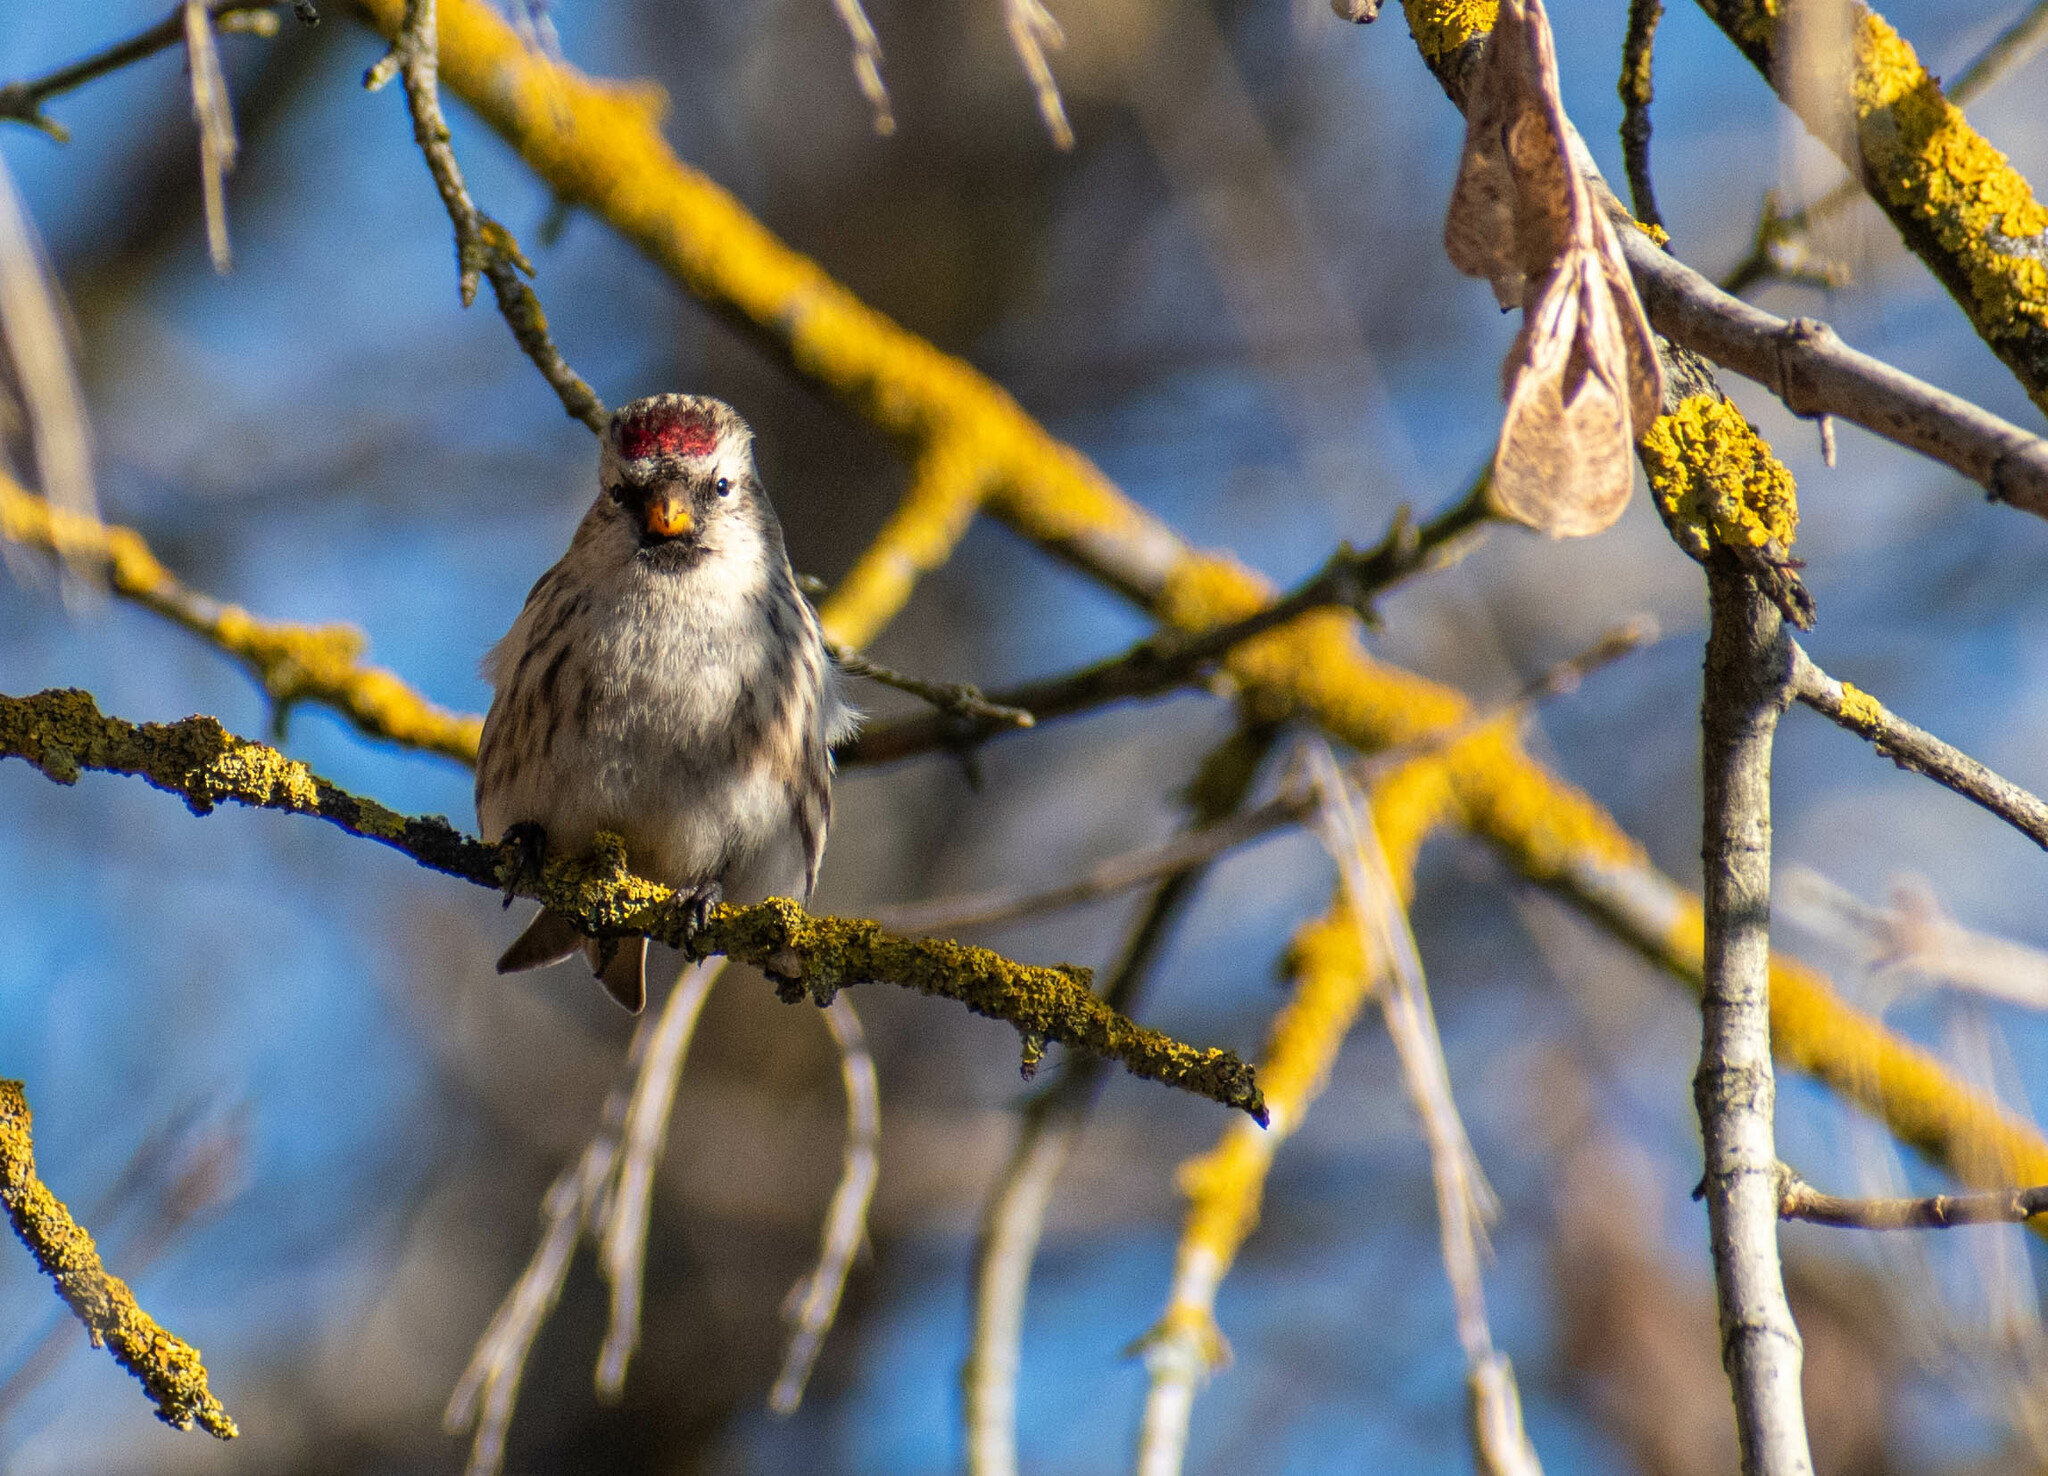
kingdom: Animalia
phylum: Chordata
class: Aves
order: Passeriformes
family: Fringillidae
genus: Acanthis
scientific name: Acanthis flammea
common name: Common redpoll
